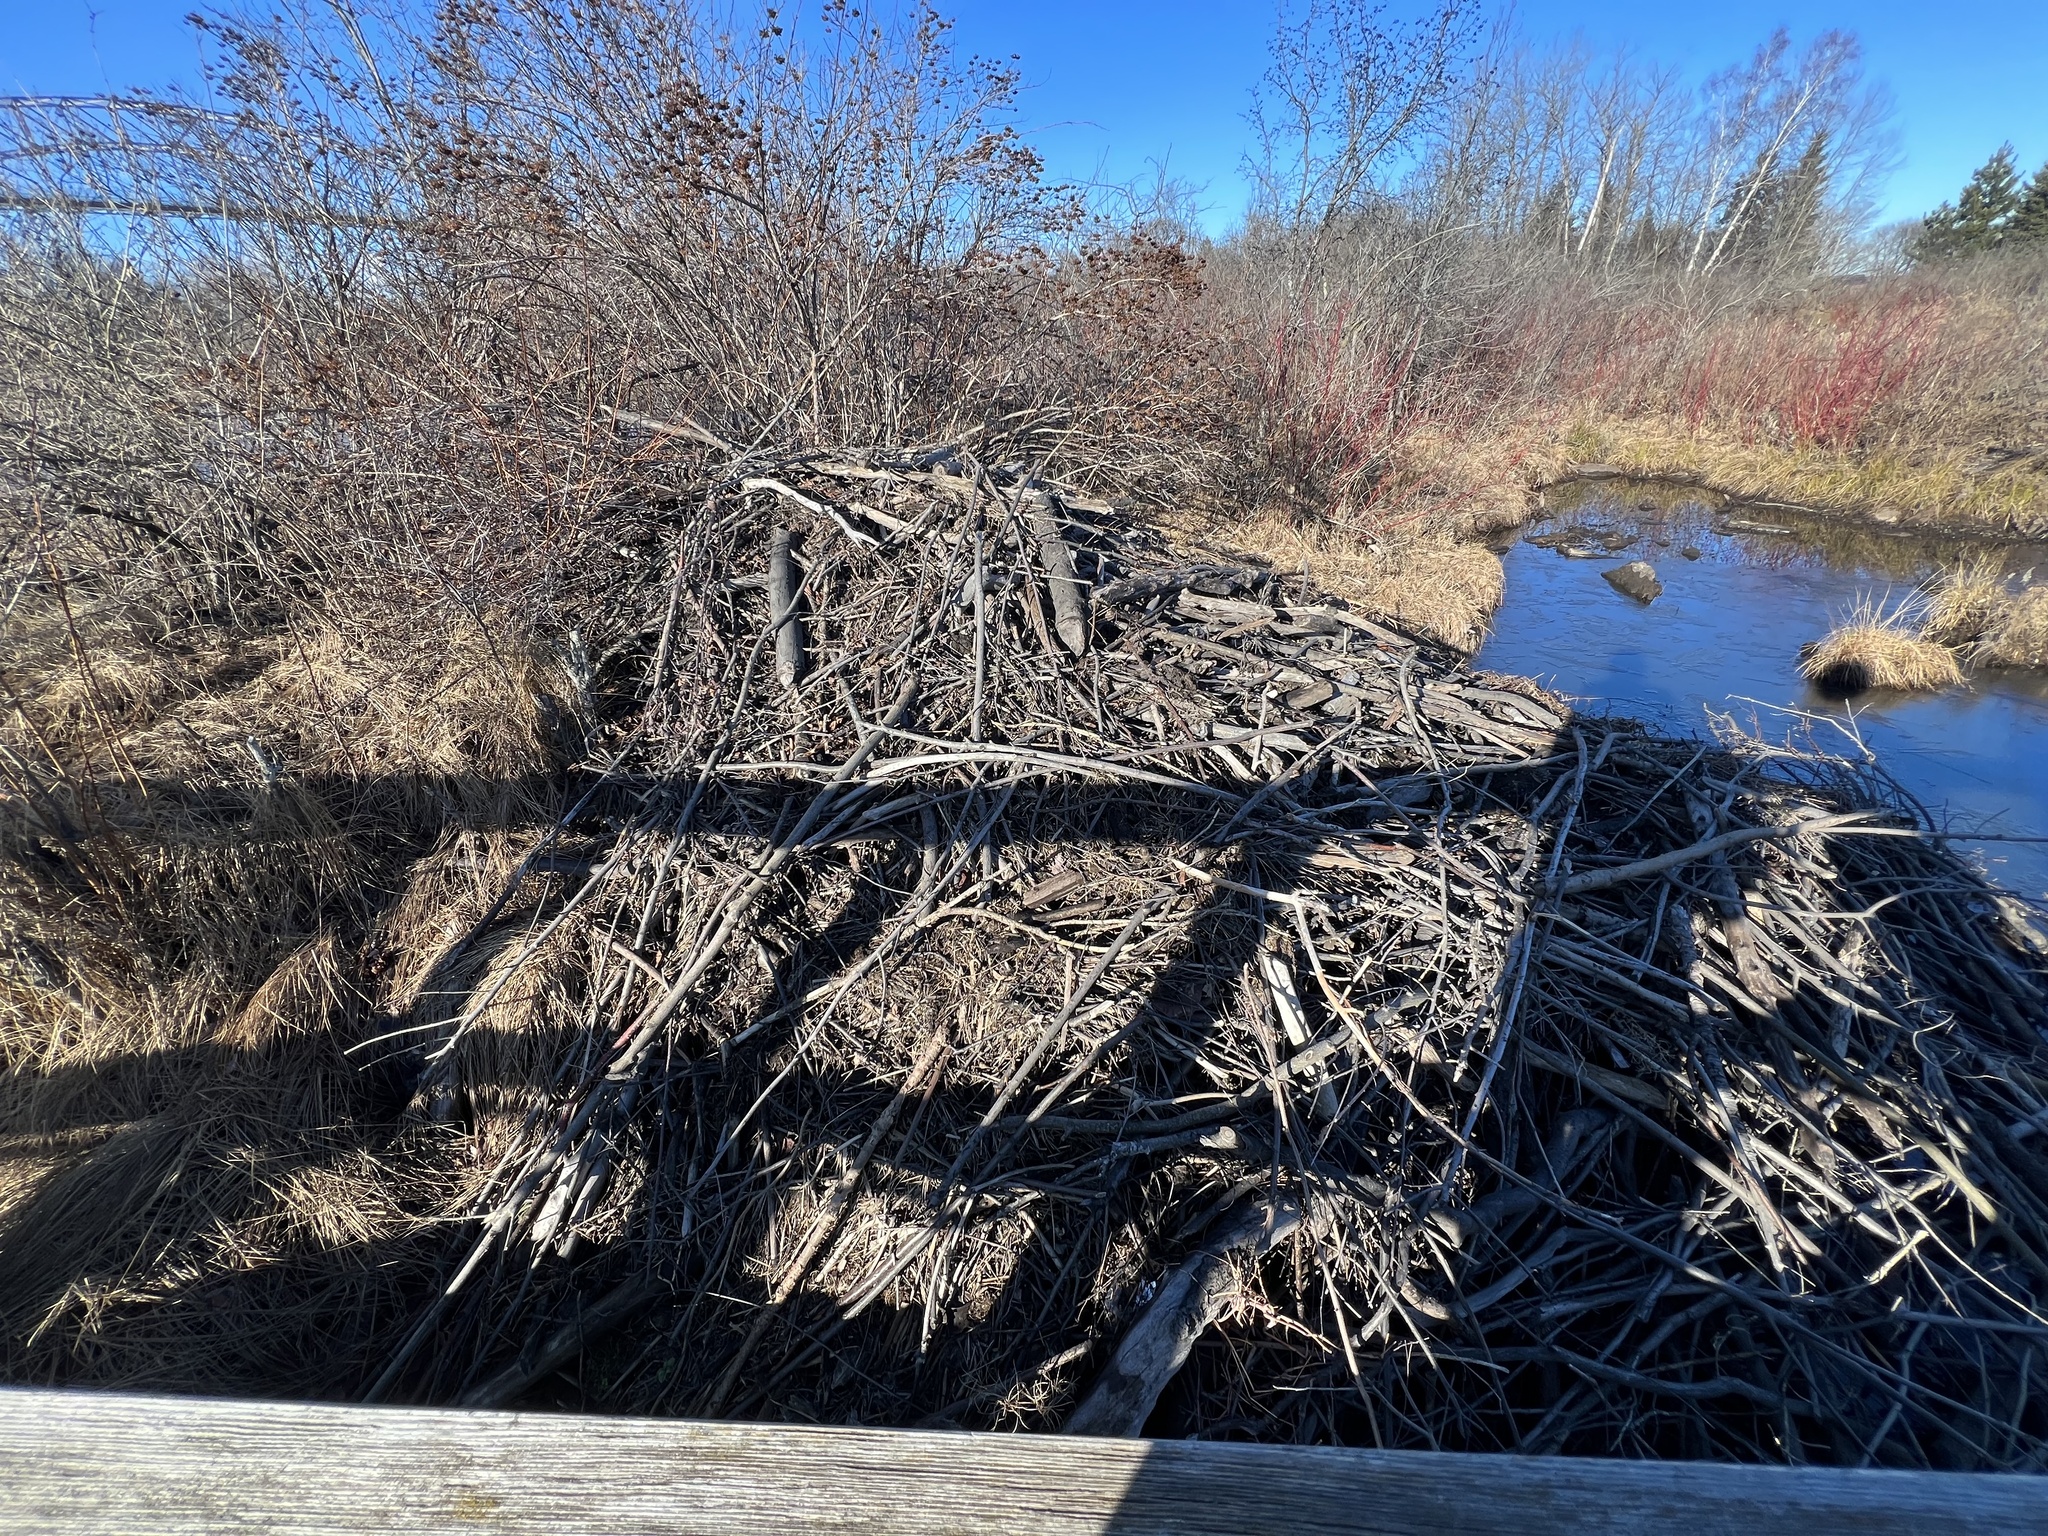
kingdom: Animalia
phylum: Chordata
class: Mammalia
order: Rodentia
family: Castoridae
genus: Castor
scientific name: Castor canadensis
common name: American beaver
